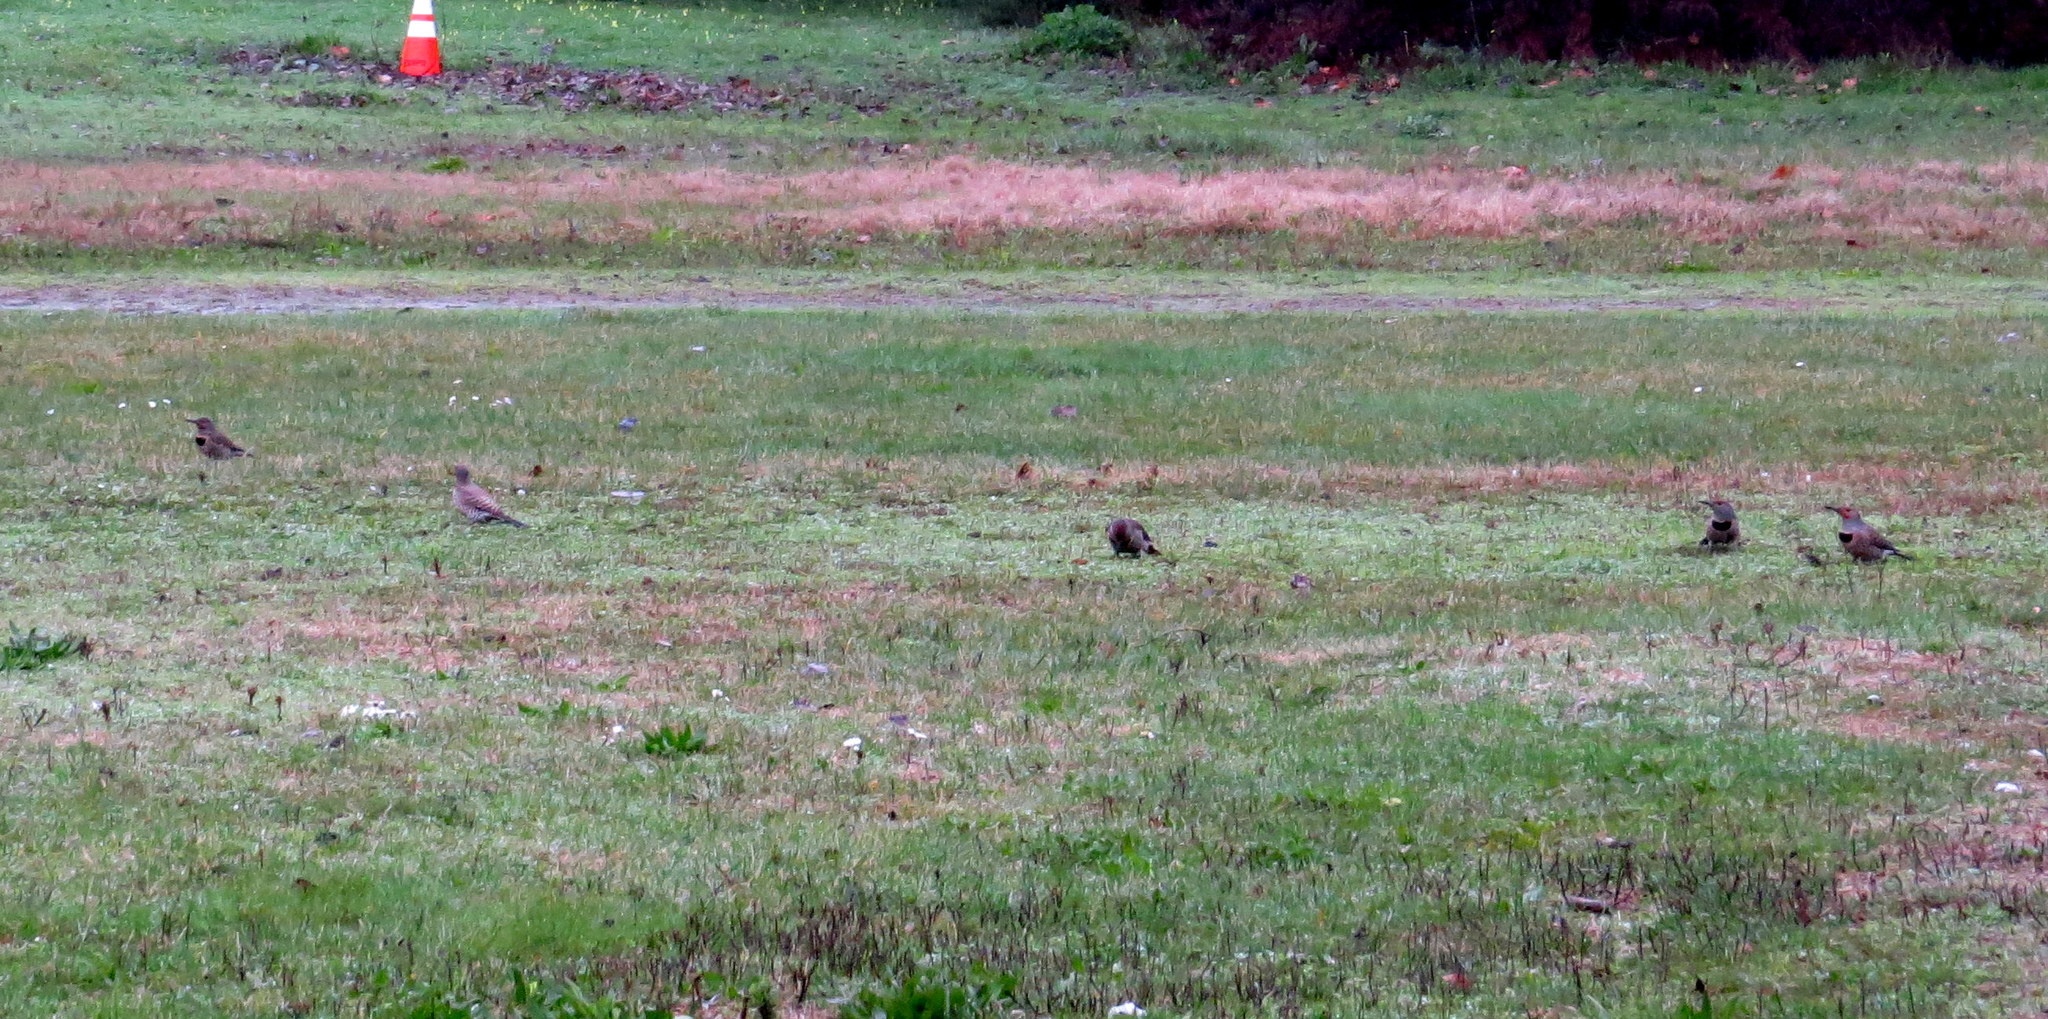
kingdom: Animalia
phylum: Chordata
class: Aves
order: Piciformes
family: Picidae
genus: Colaptes
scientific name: Colaptes auratus
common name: Northern flicker
